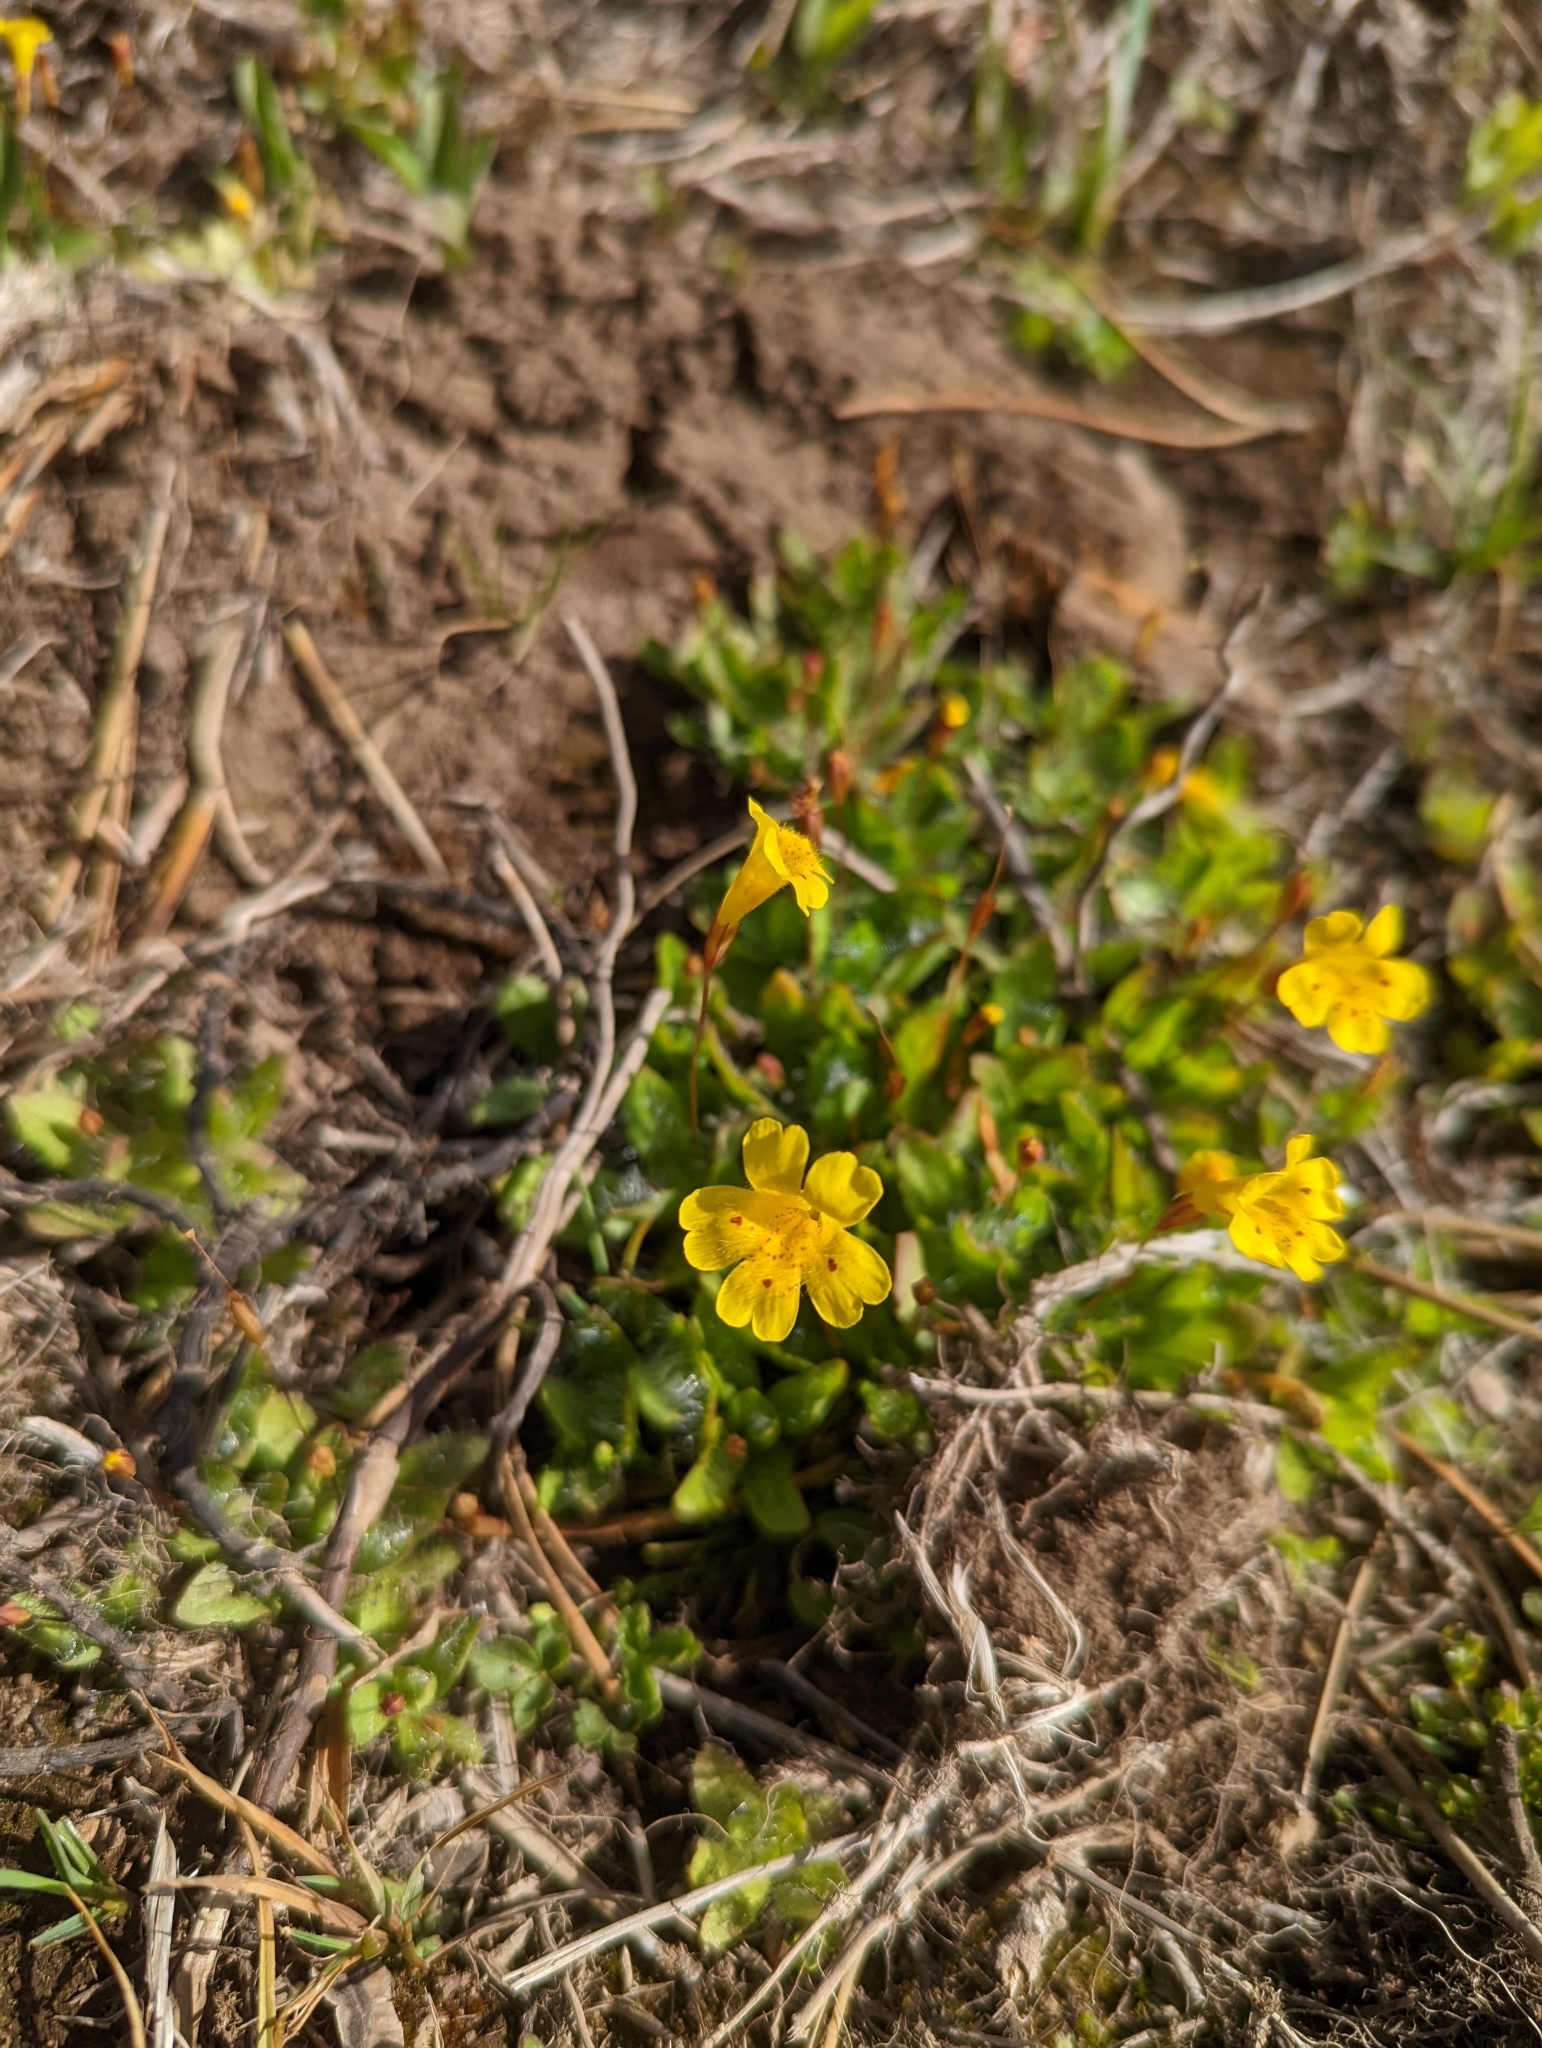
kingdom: Plantae
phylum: Tracheophyta
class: Magnoliopsida
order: Lamiales
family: Phrymaceae
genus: Erythranthe
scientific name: Erythranthe primuloides
